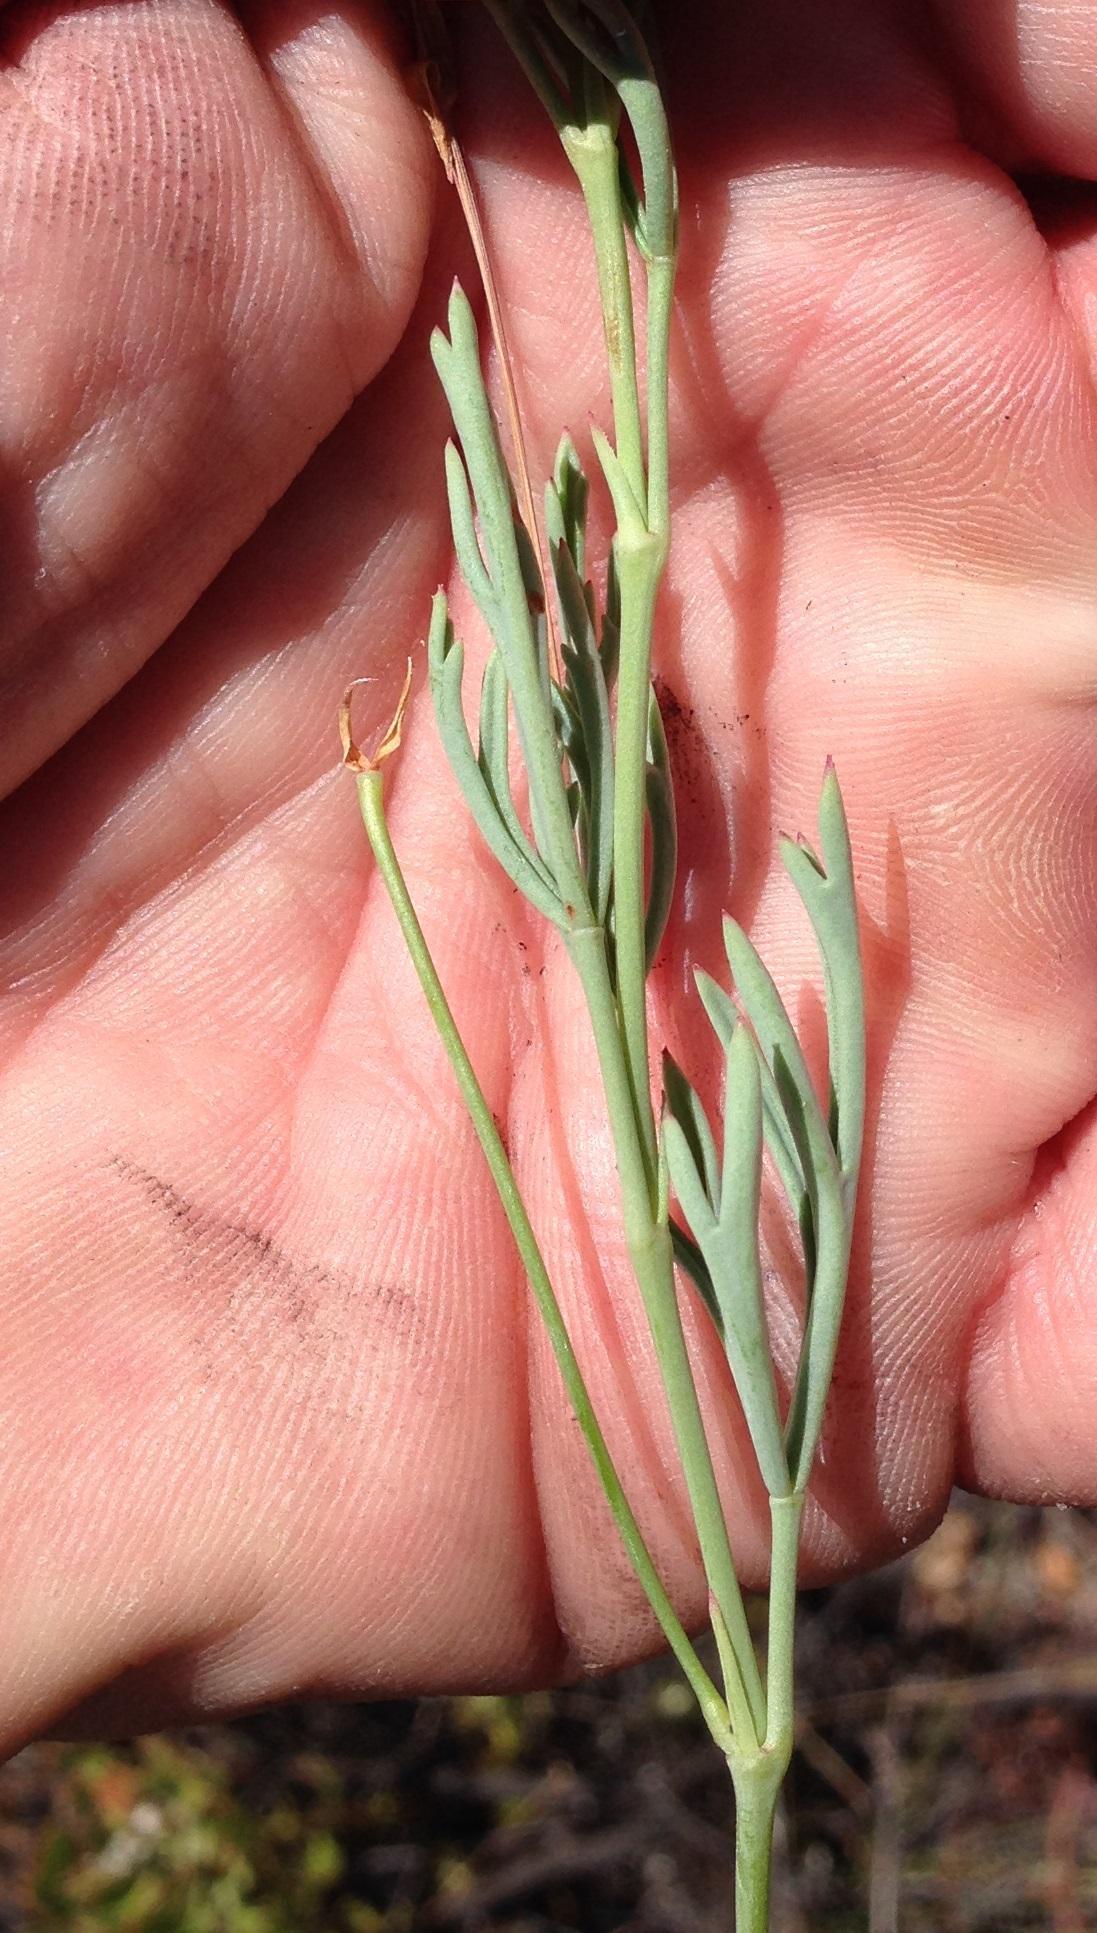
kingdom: Plantae
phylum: Tracheophyta
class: Magnoliopsida
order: Geraniales
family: Geraniaceae
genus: Pelargonium
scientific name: Pelargonium laevigatum
